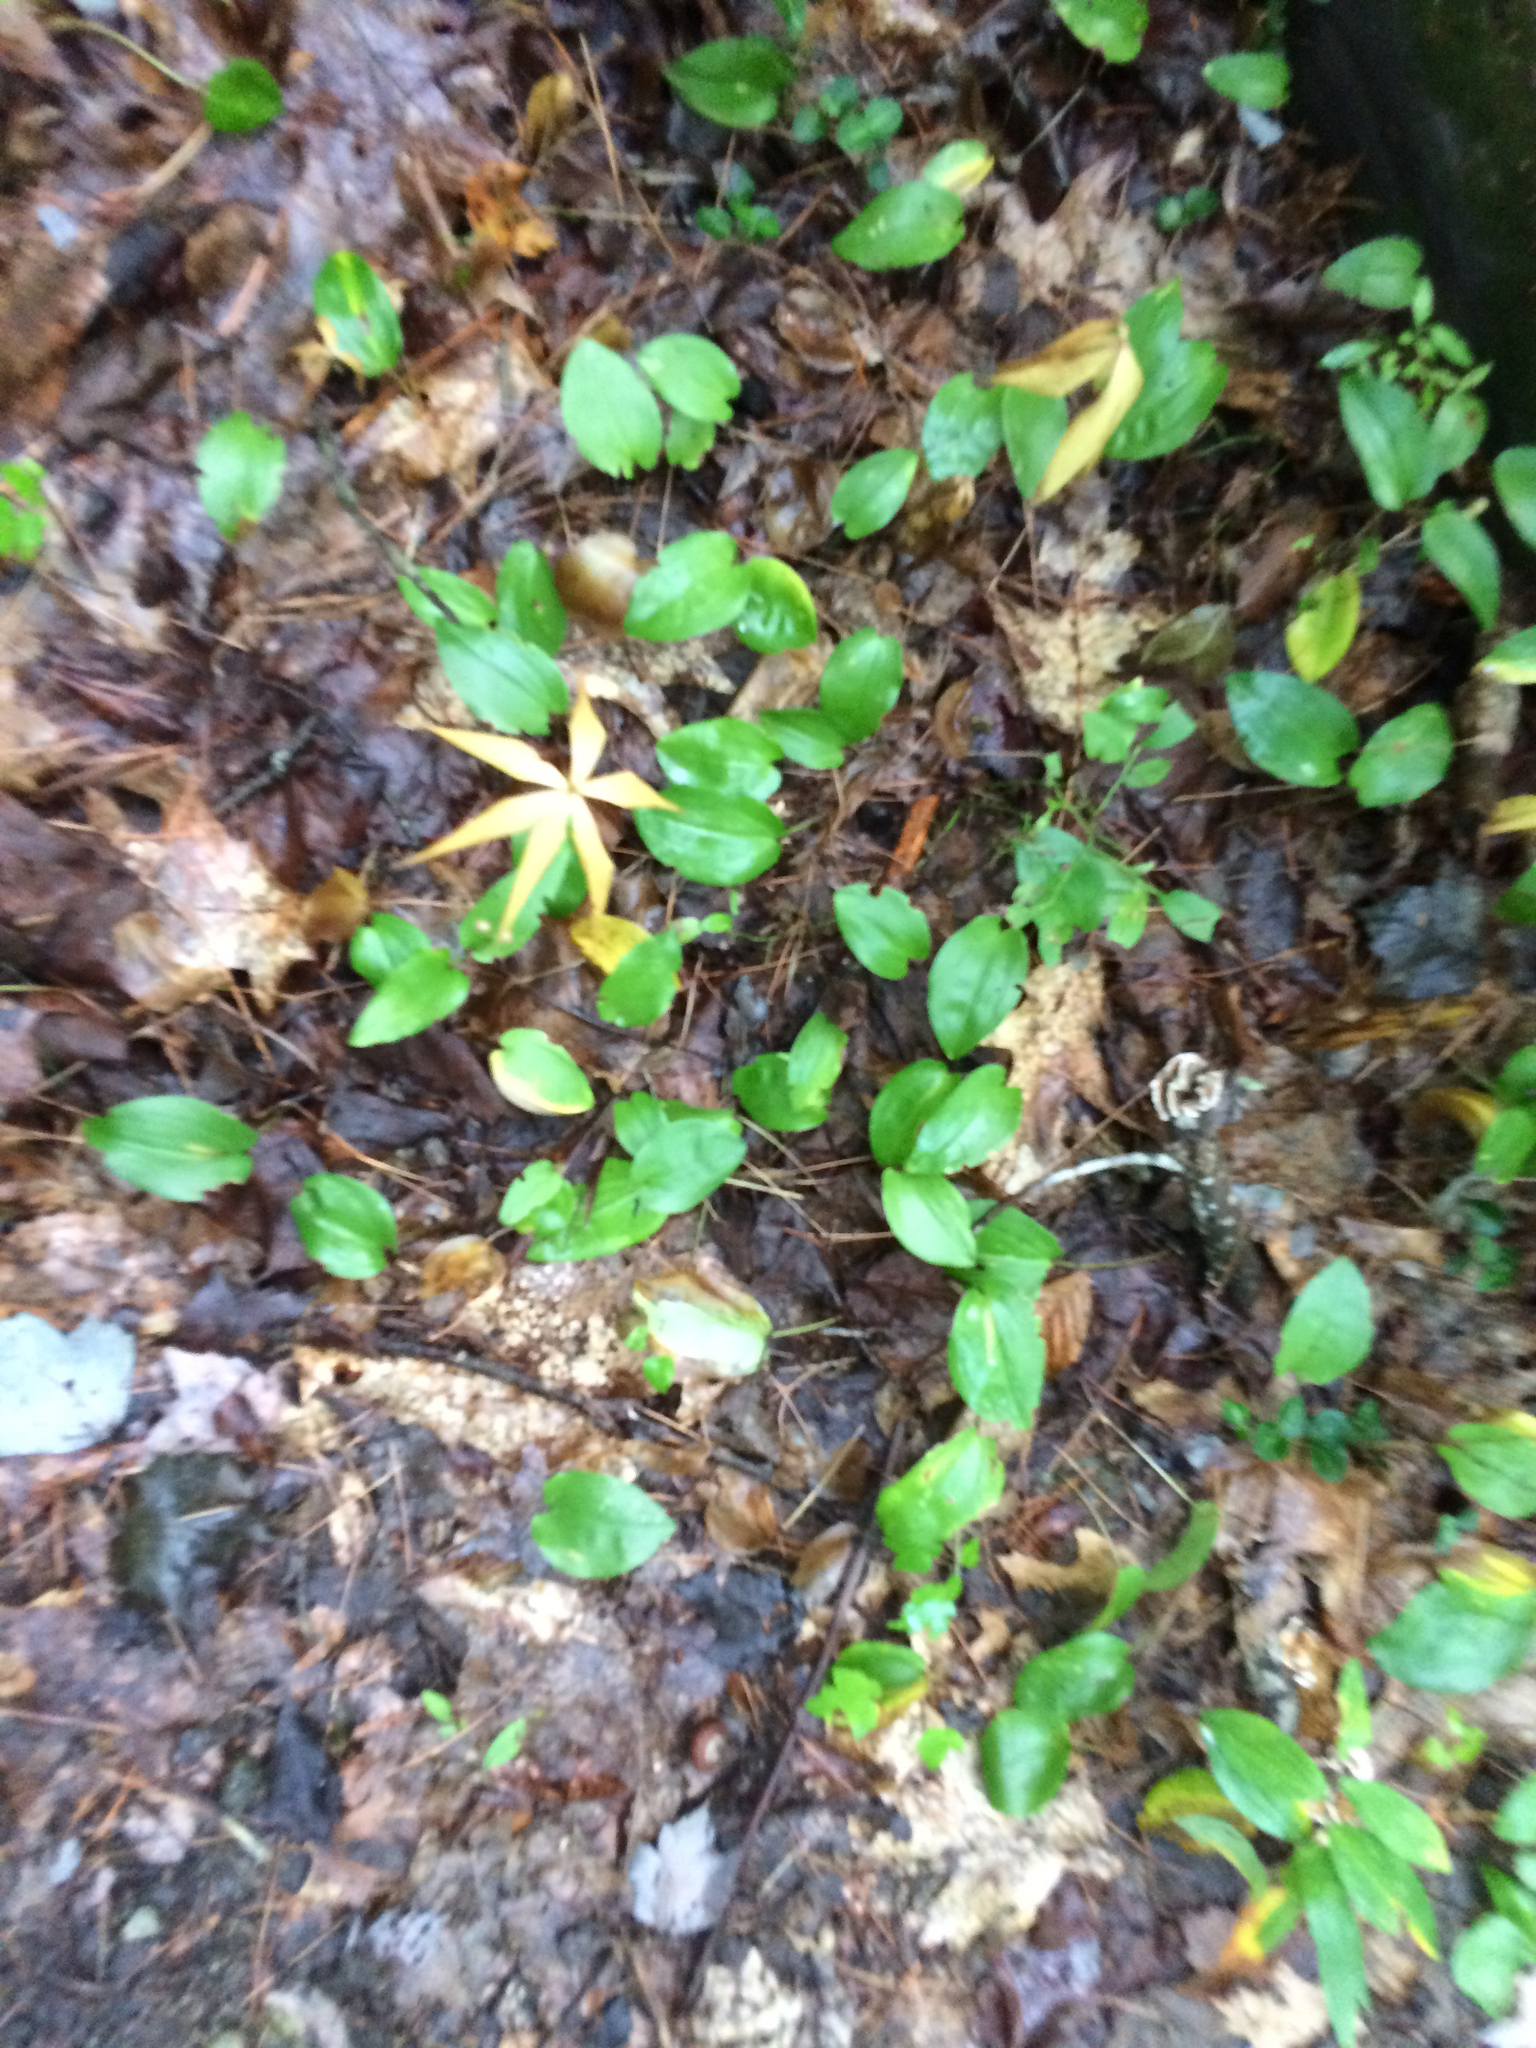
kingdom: Plantae
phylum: Tracheophyta
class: Liliopsida
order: Asparagales
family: Asparagaceae
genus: Maianthemum
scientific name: Maianthemum canadense
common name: False lily-of-the-valley
